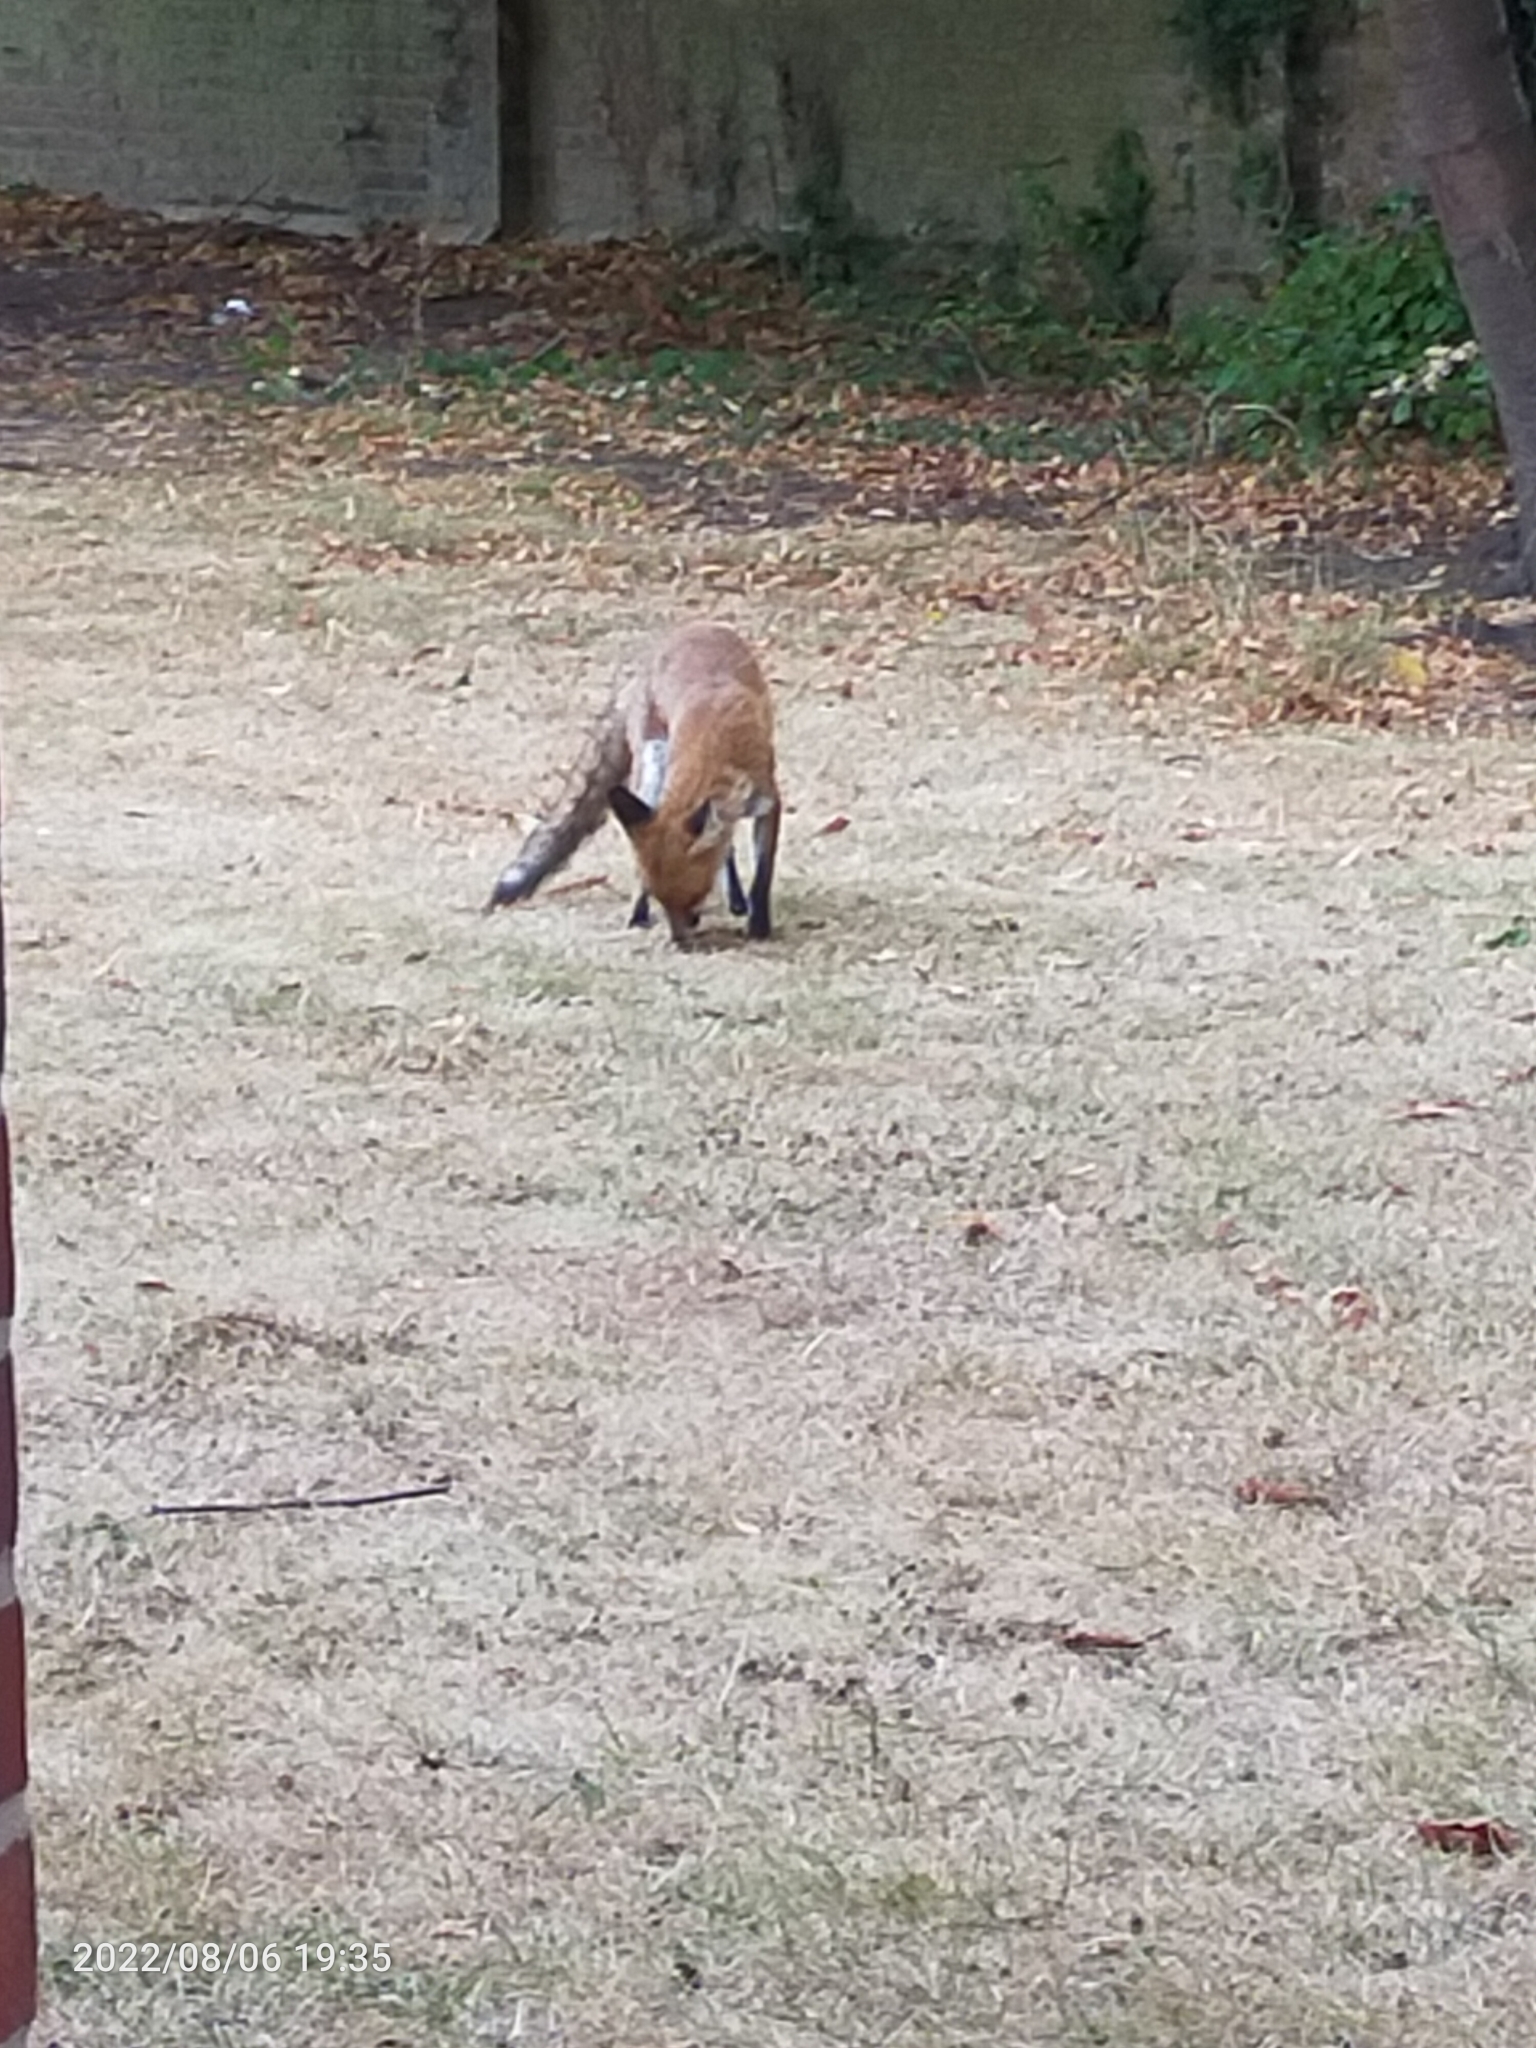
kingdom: Animalia
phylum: Chordata
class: Mammalia
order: Carnivora
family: Canidae
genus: Vulpes
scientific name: Vulpes vulpes
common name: Red fox
